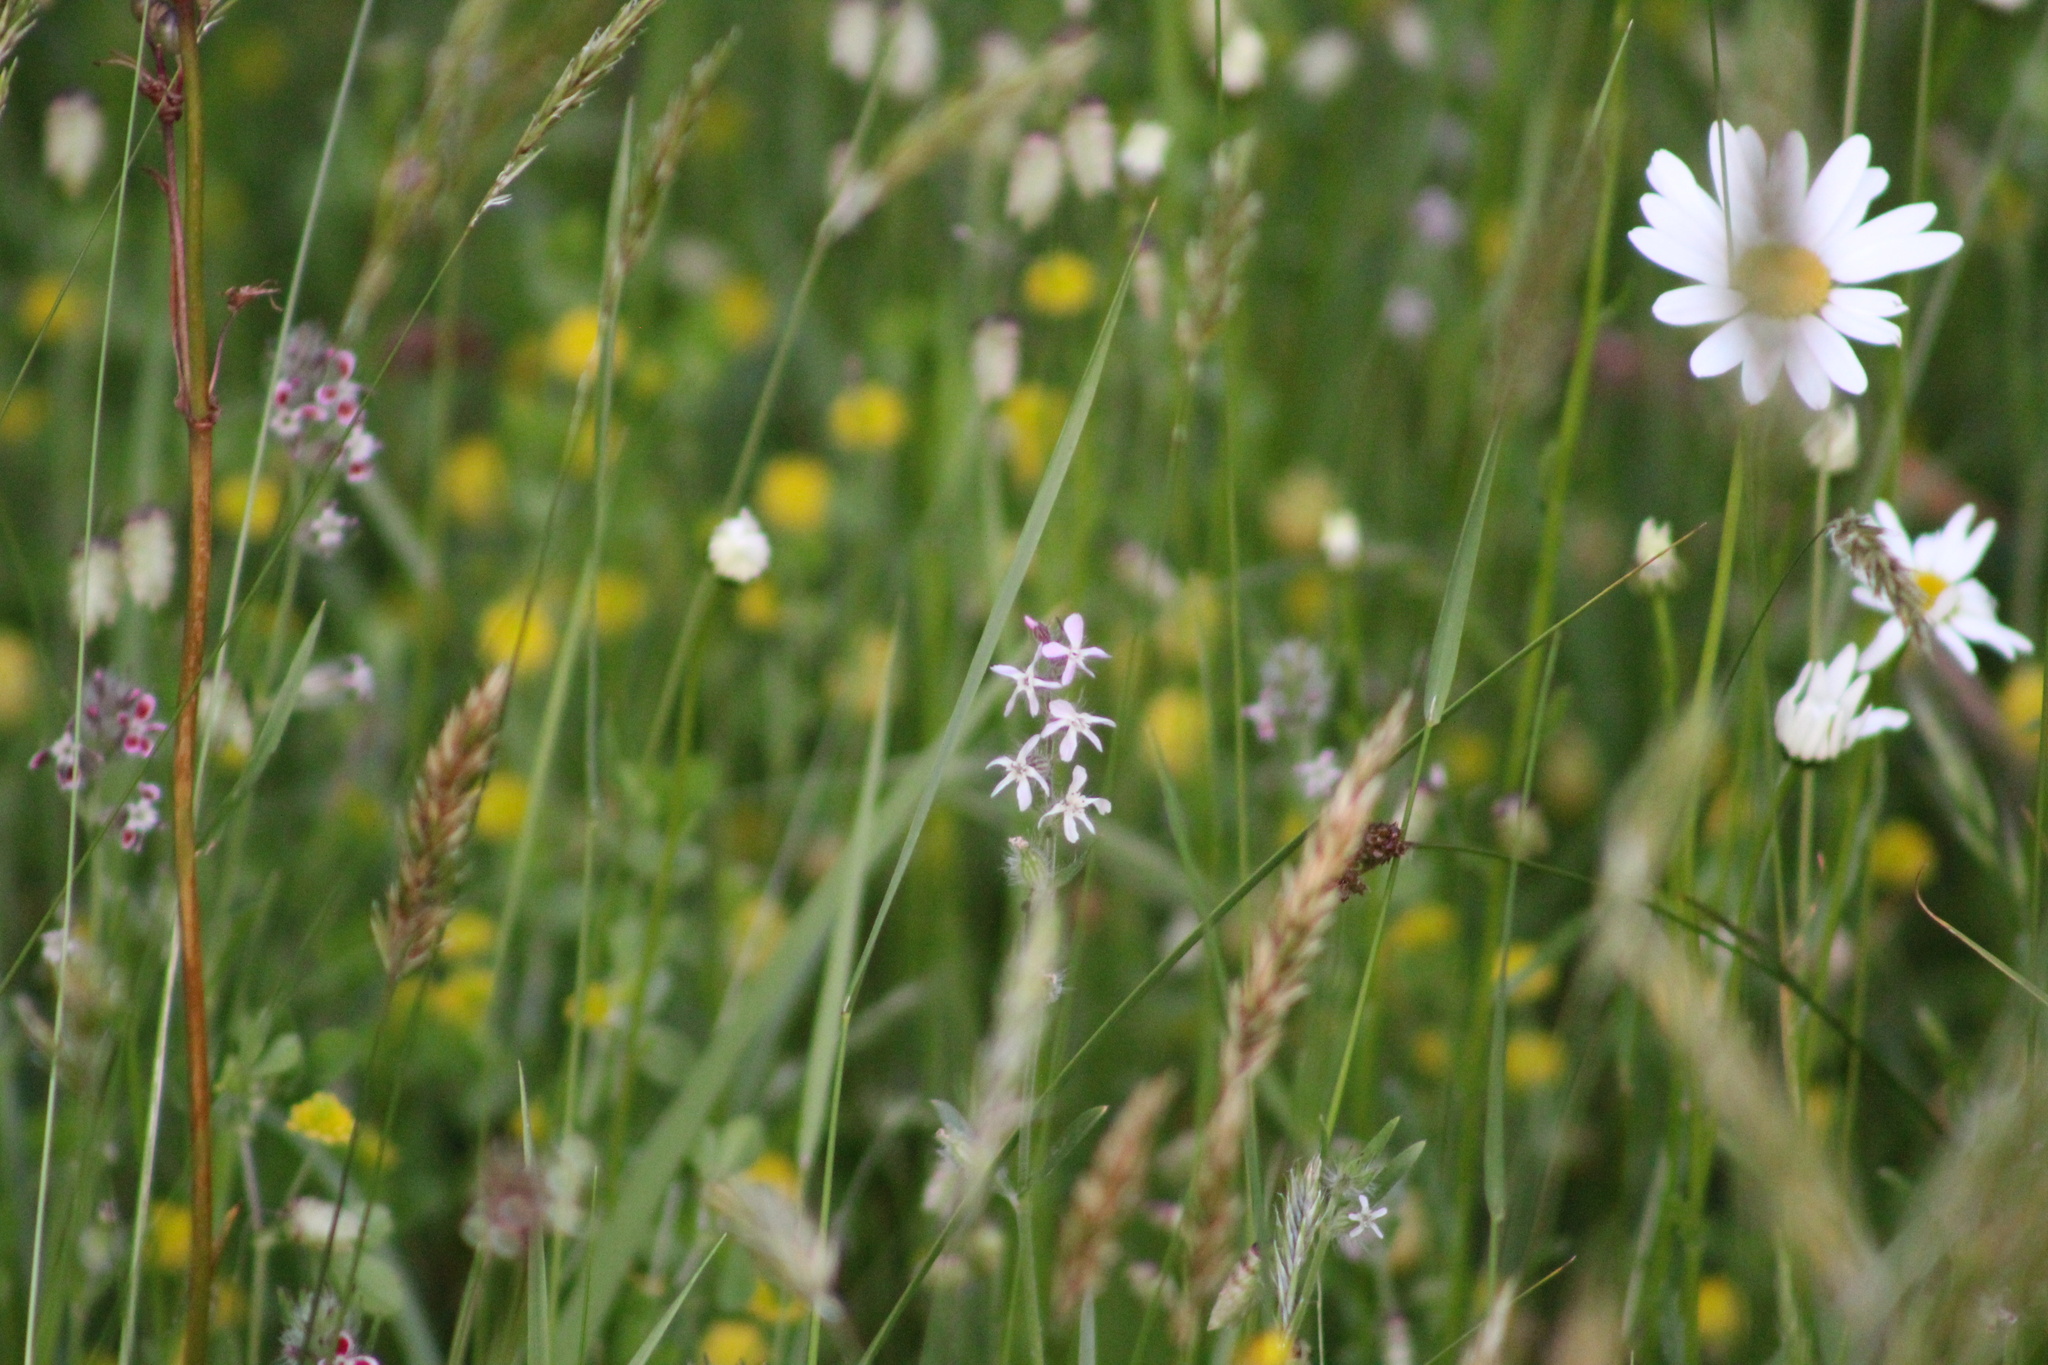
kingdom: Plantae
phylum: Tracheophyta
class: Magnoliopsida
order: Caryophyllales
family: Caryophyllaceae
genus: Silene
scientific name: Silene gallica
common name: Small-flowered catchfly
